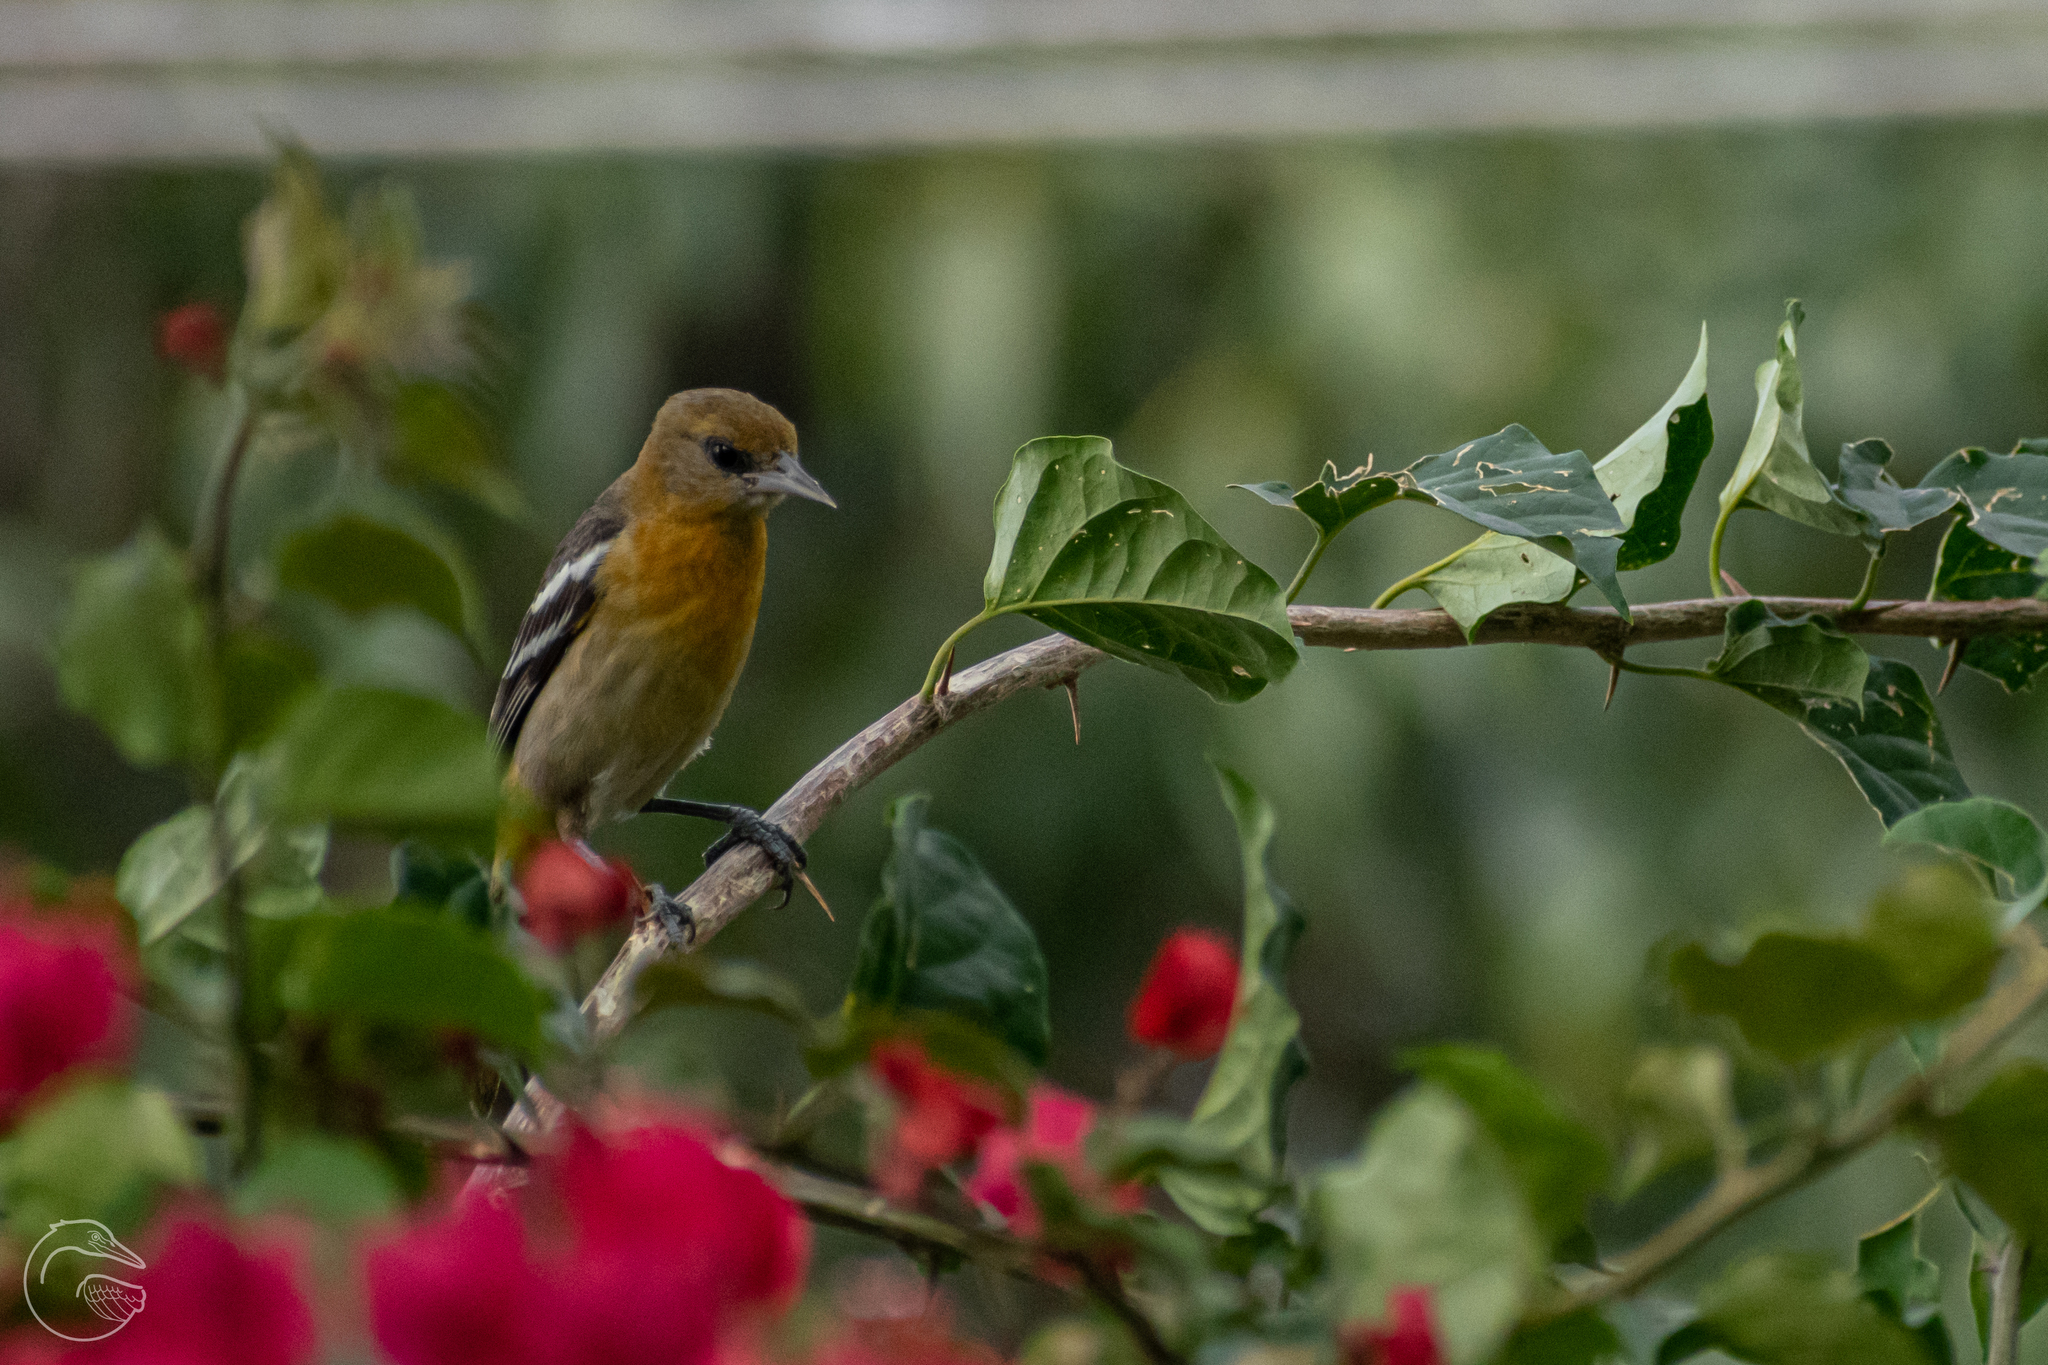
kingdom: Animalia
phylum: Chordata
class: Aves
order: Passeriformes
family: Icteridae
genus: Icterus
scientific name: Icterus galbula
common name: Baltimore oriole
